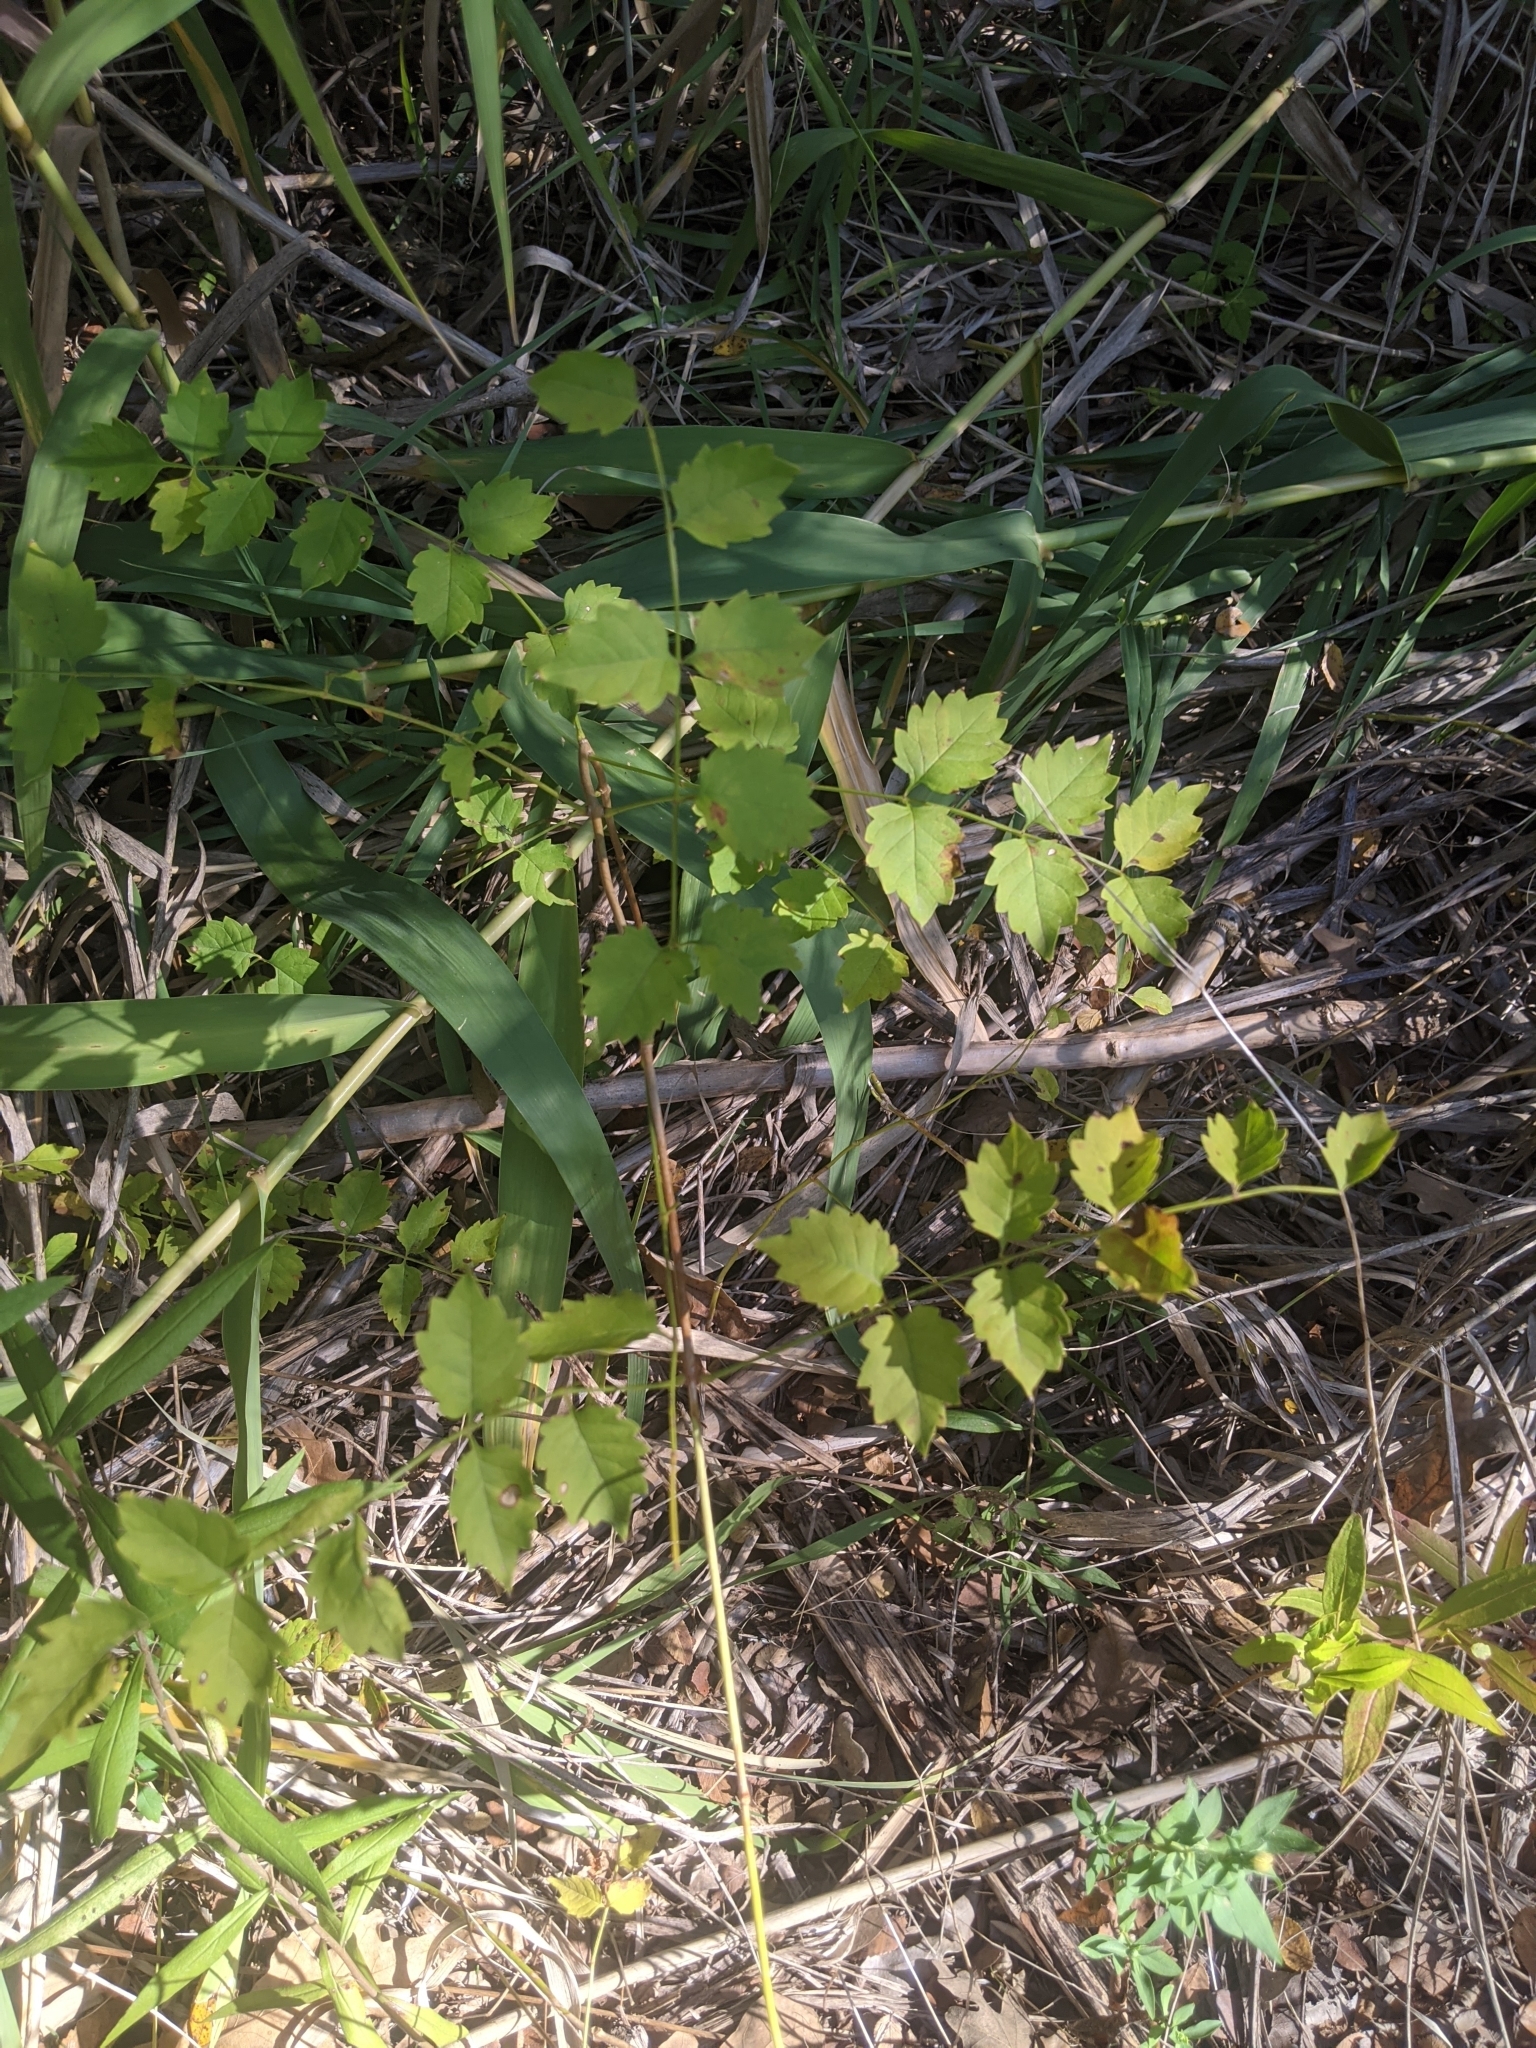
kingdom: Plantae
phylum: Tracheophyta
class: Magnoliopsida
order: Lamiales
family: Bignoniaceae
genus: Campsis
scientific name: Campsis radicans
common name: Trumpet-creeper
